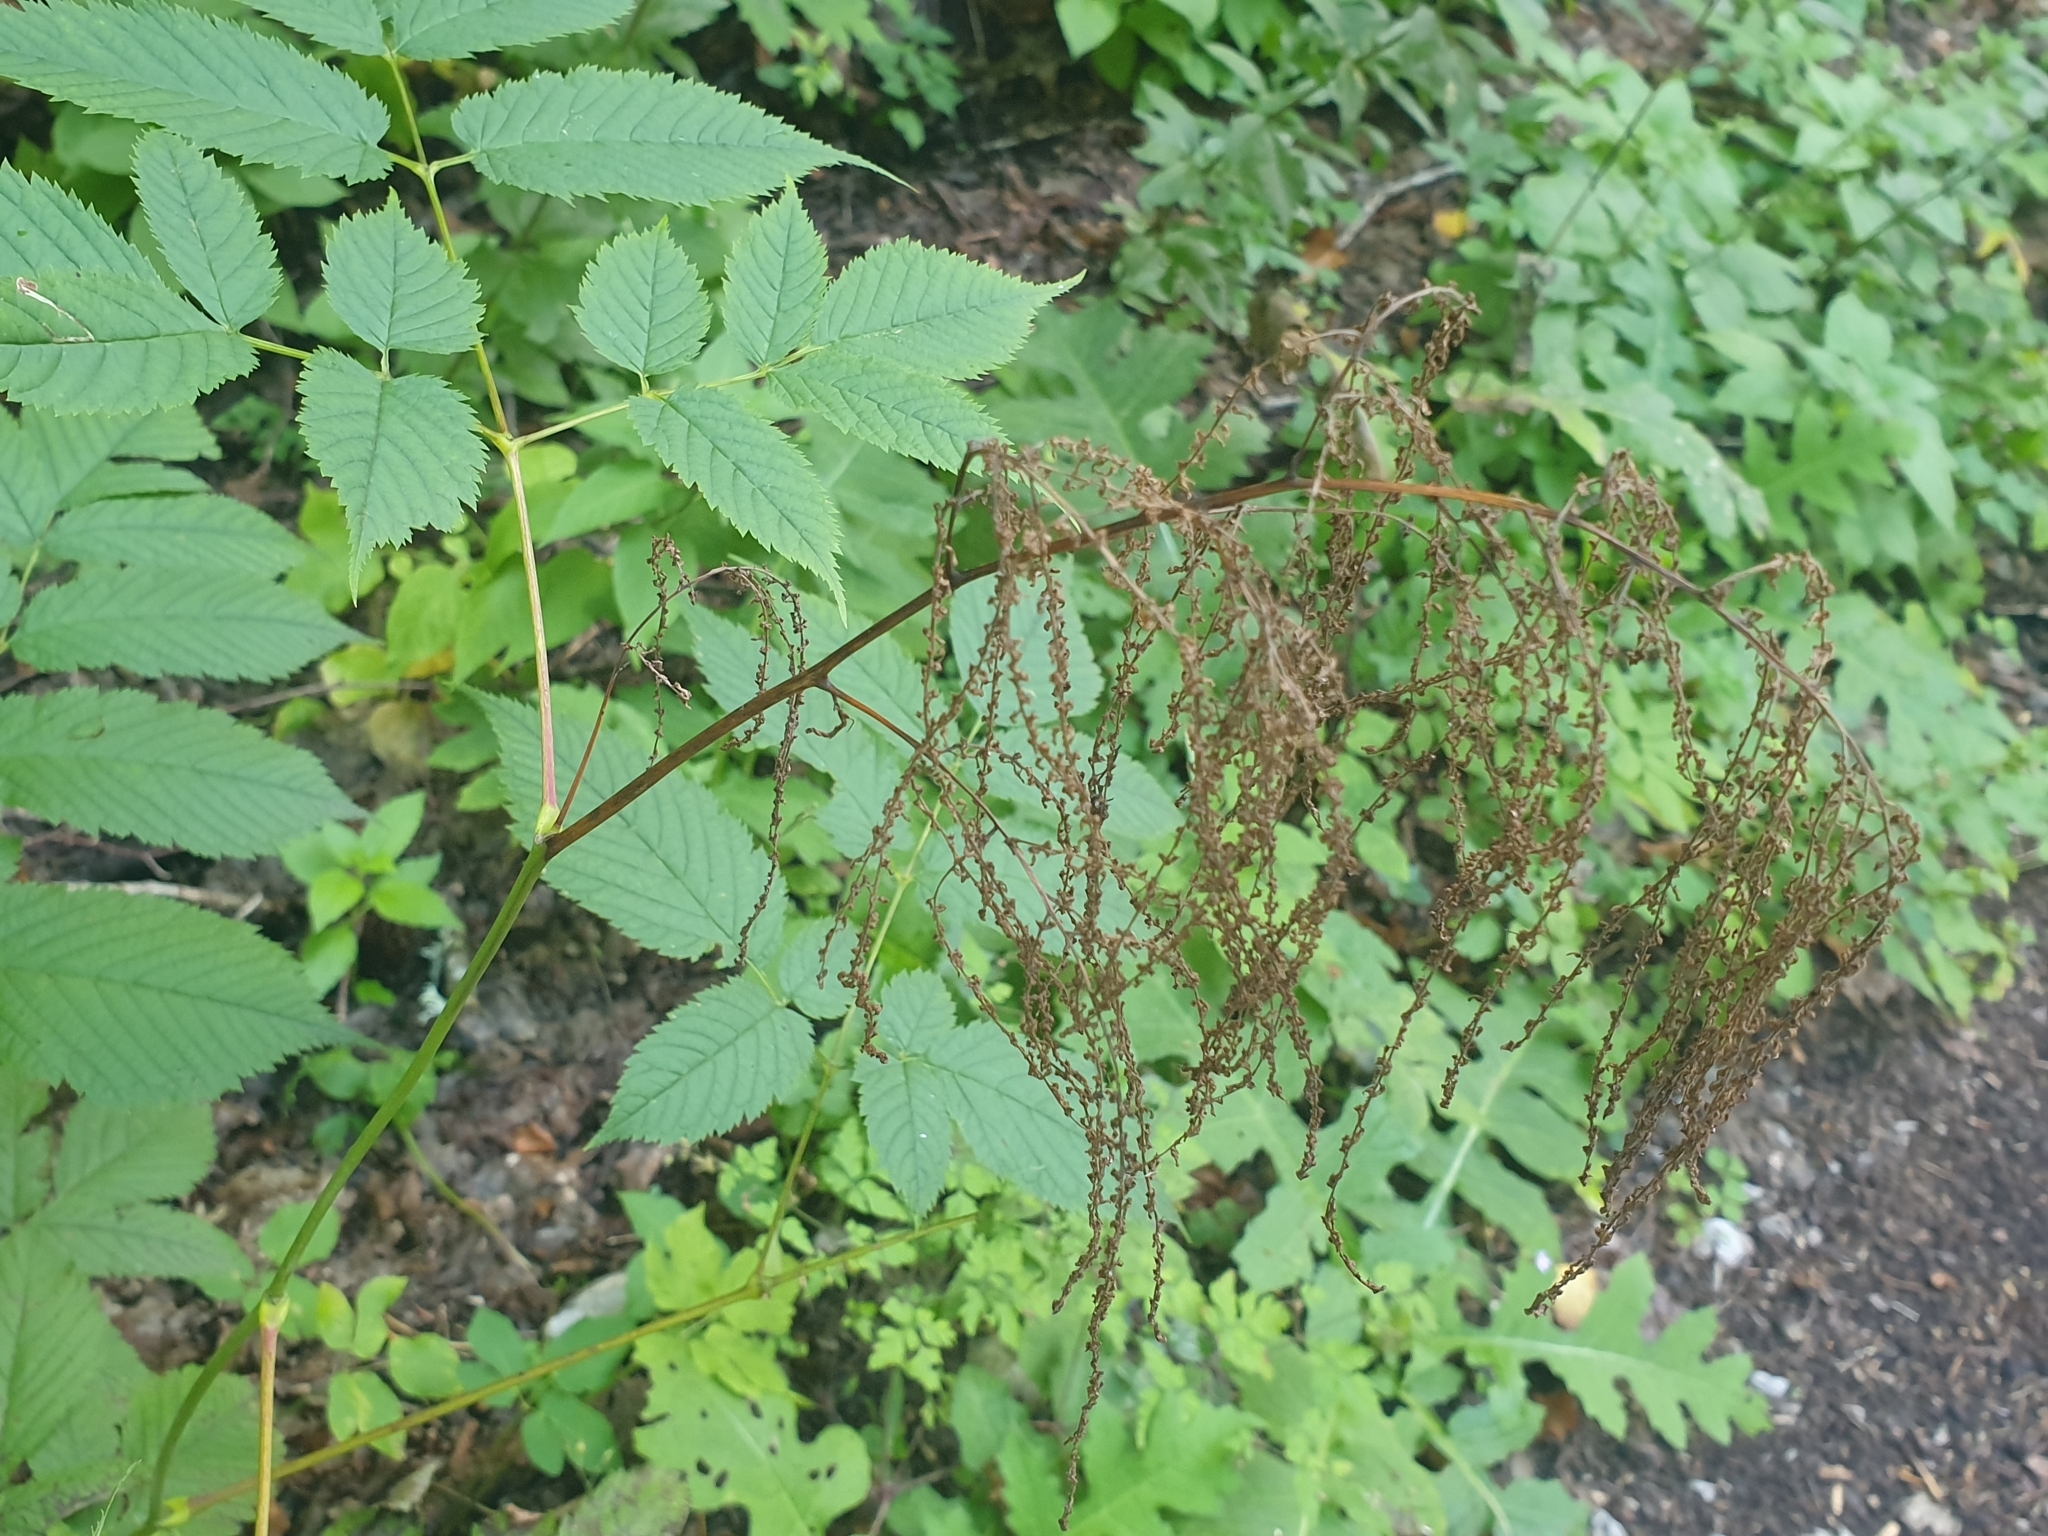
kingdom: Plantae
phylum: Tracheophyta
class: Magnoliopsida
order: Rosales
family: Rosaceae
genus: Aruncus
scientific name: Aruncus dioicus
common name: Buck's-beard
